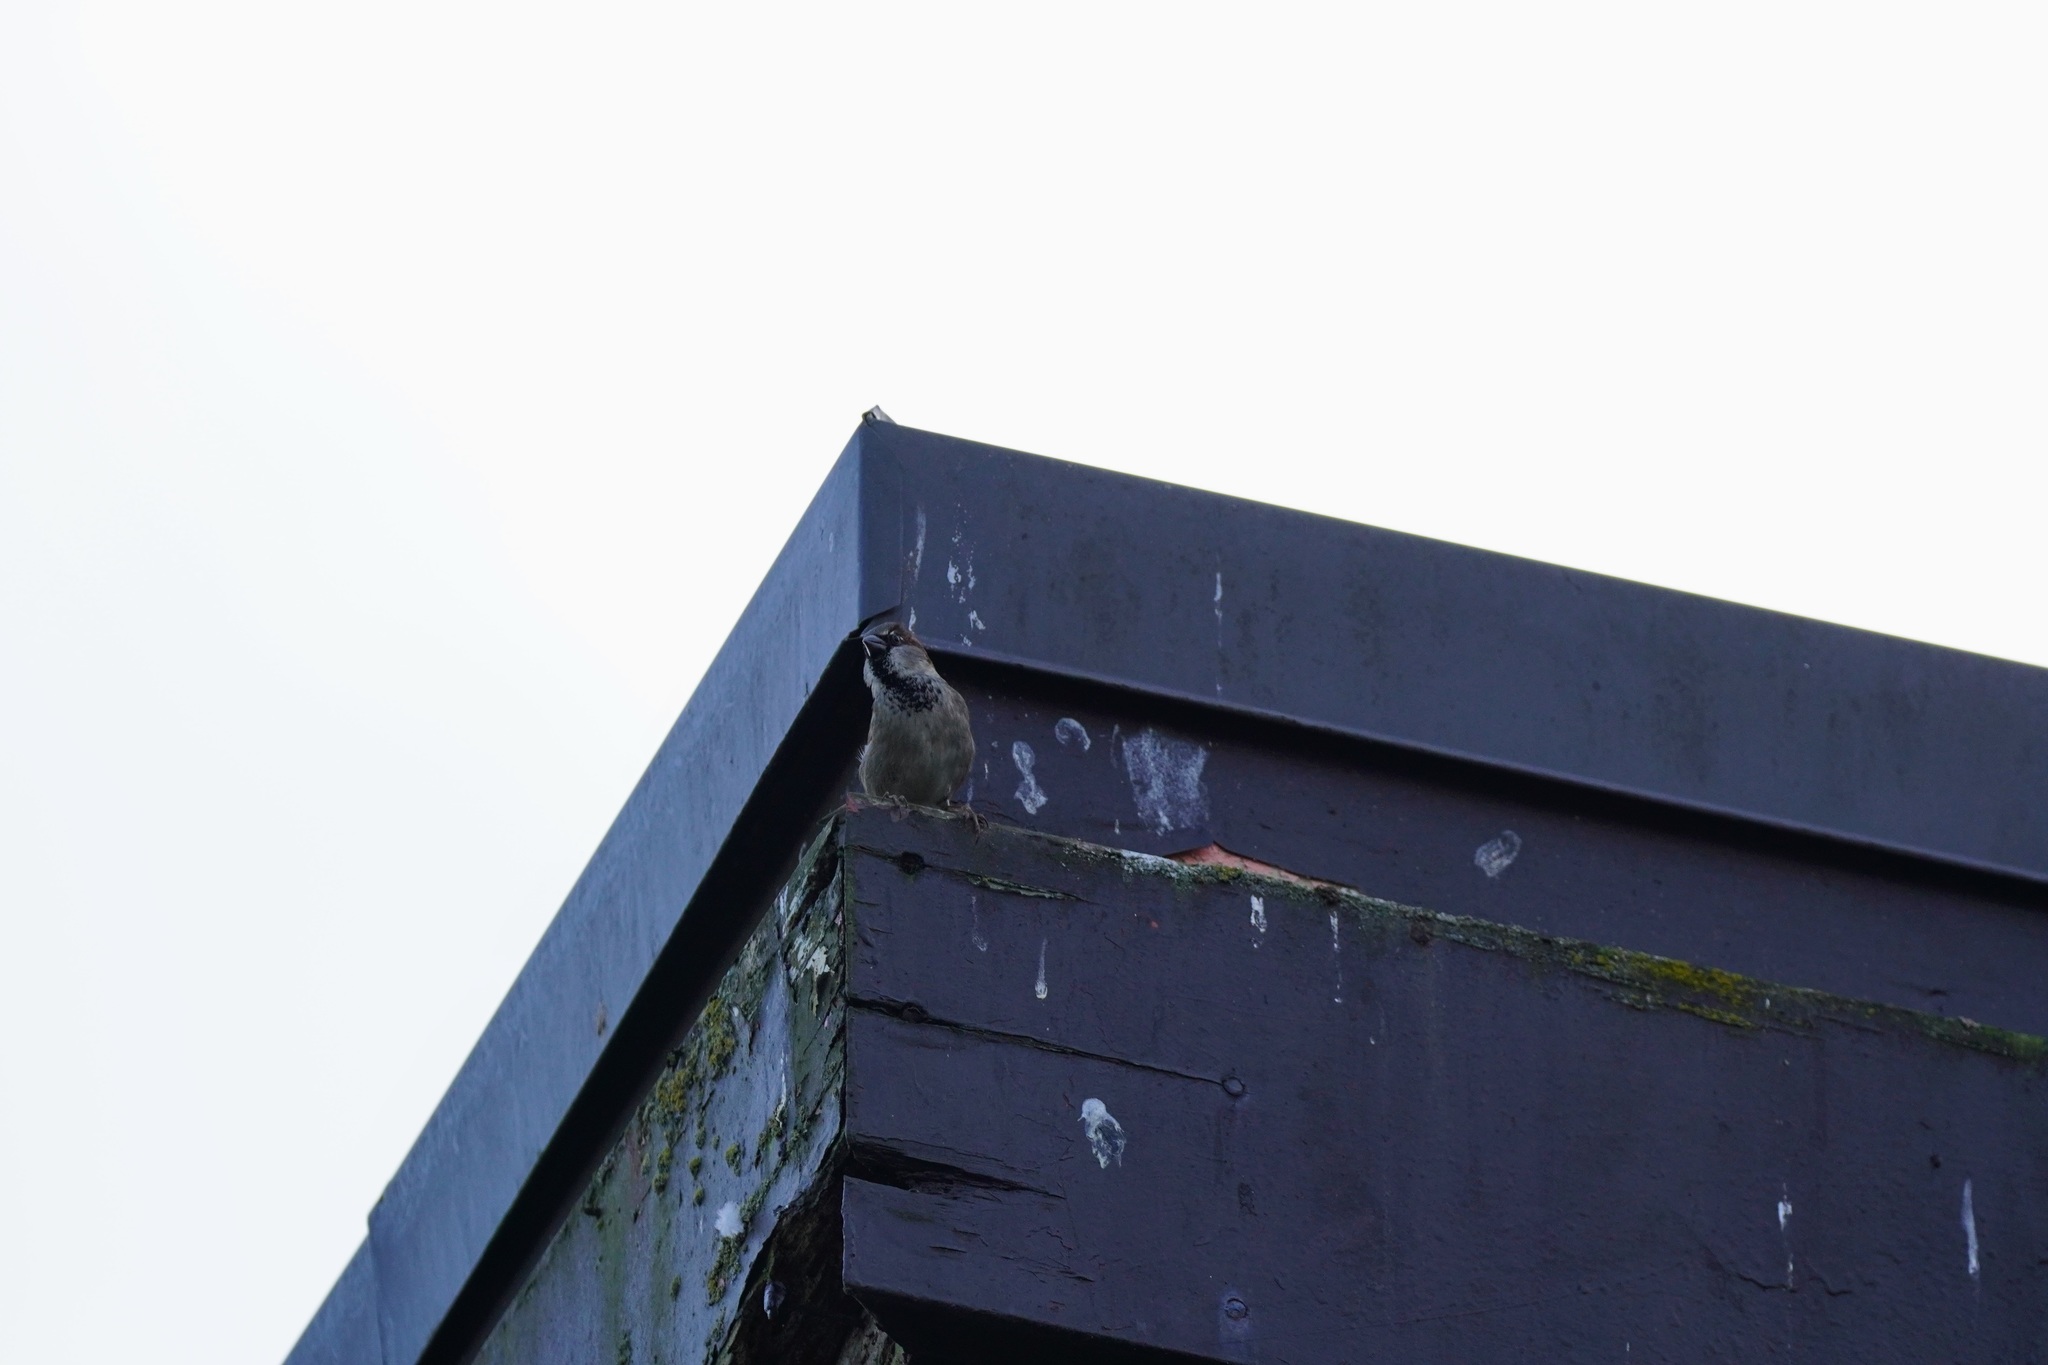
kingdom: Animalia
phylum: Chordata
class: Aves
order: Passeriformes
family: Passeridae
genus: Passer
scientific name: Passer domesticus
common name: House sparrow
